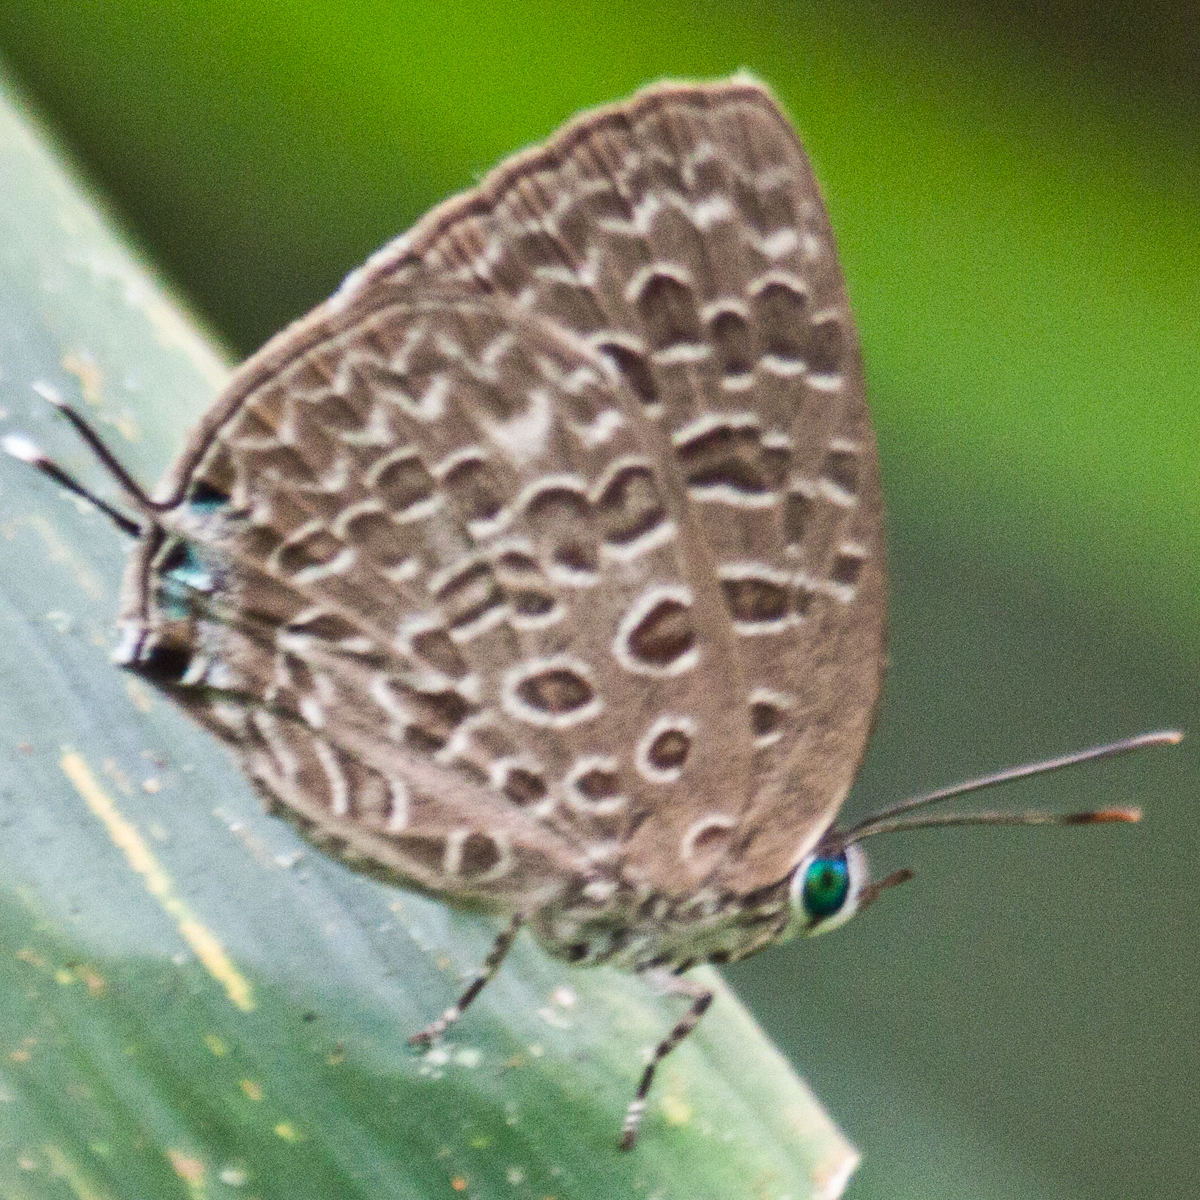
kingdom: Animalia
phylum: Arthropoda
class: Insecta
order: Lepidoptera
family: Lycaenidae
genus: Arhopala
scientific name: Arhopala alitaeus
